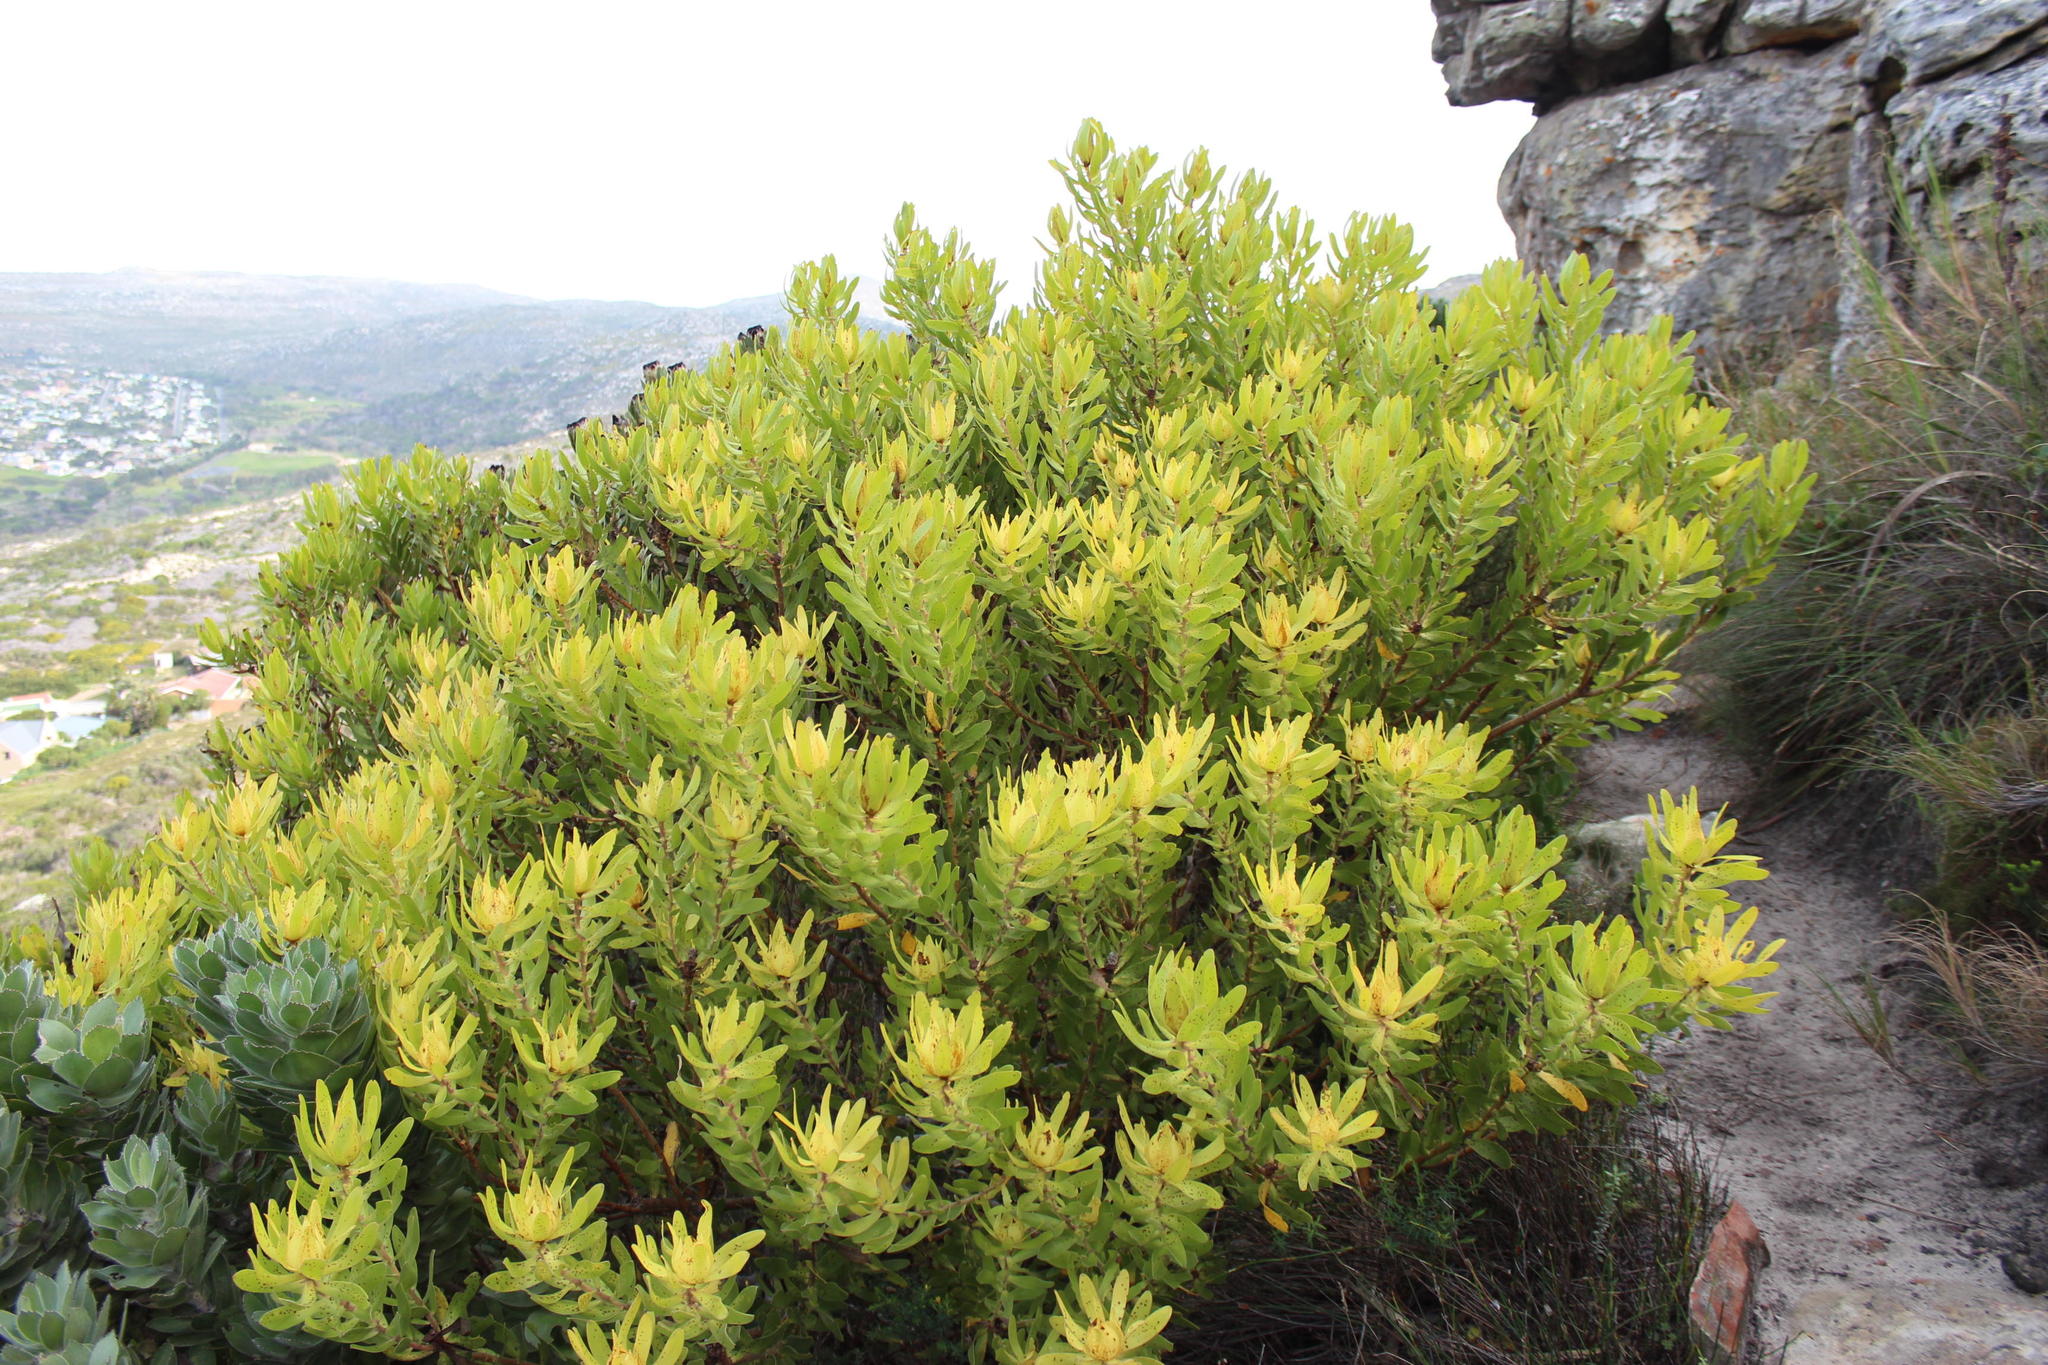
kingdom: Plantae
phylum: Tracheophyta
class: Magnoliopsida
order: Proteales
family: Proteaceae
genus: Leucadendron
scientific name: Leucadendron laureolum
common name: Golden sunshinebush
